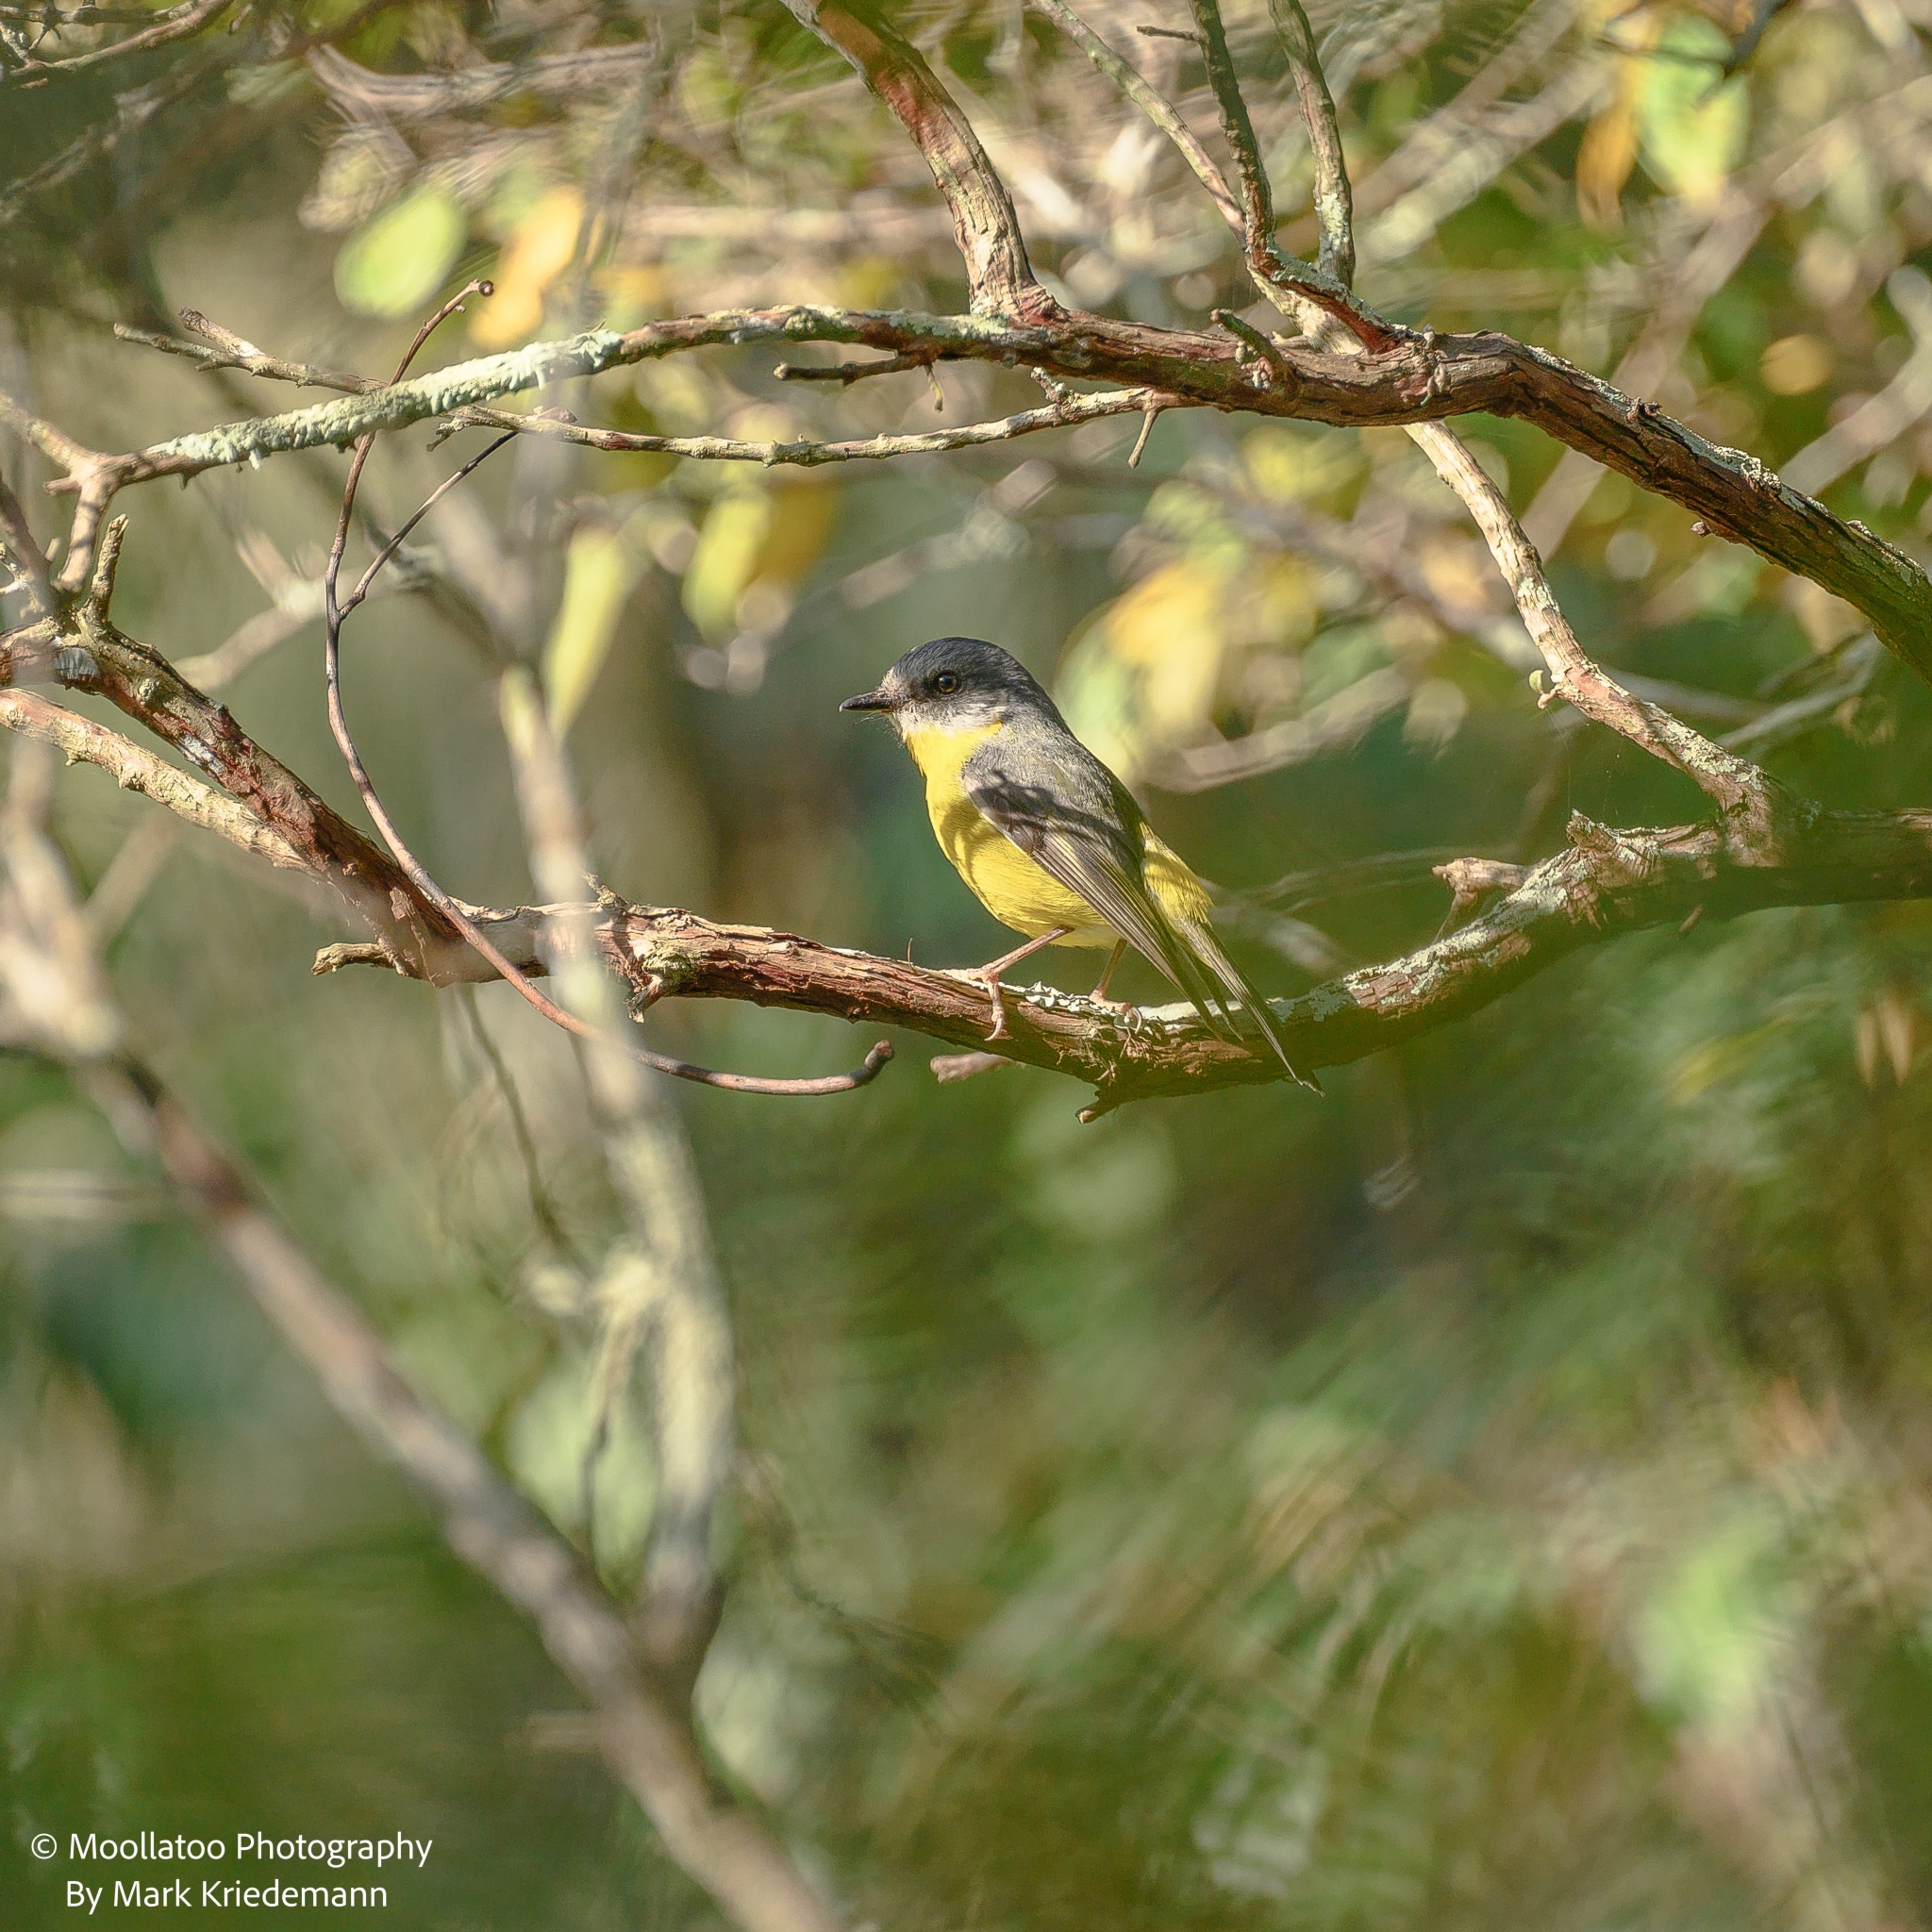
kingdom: Animalia
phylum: Chordata
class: Aves
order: Passeriformes
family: Petroicidae
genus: Eopsaltria
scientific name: Eopsaltria australis
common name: Eastern yellow robin
